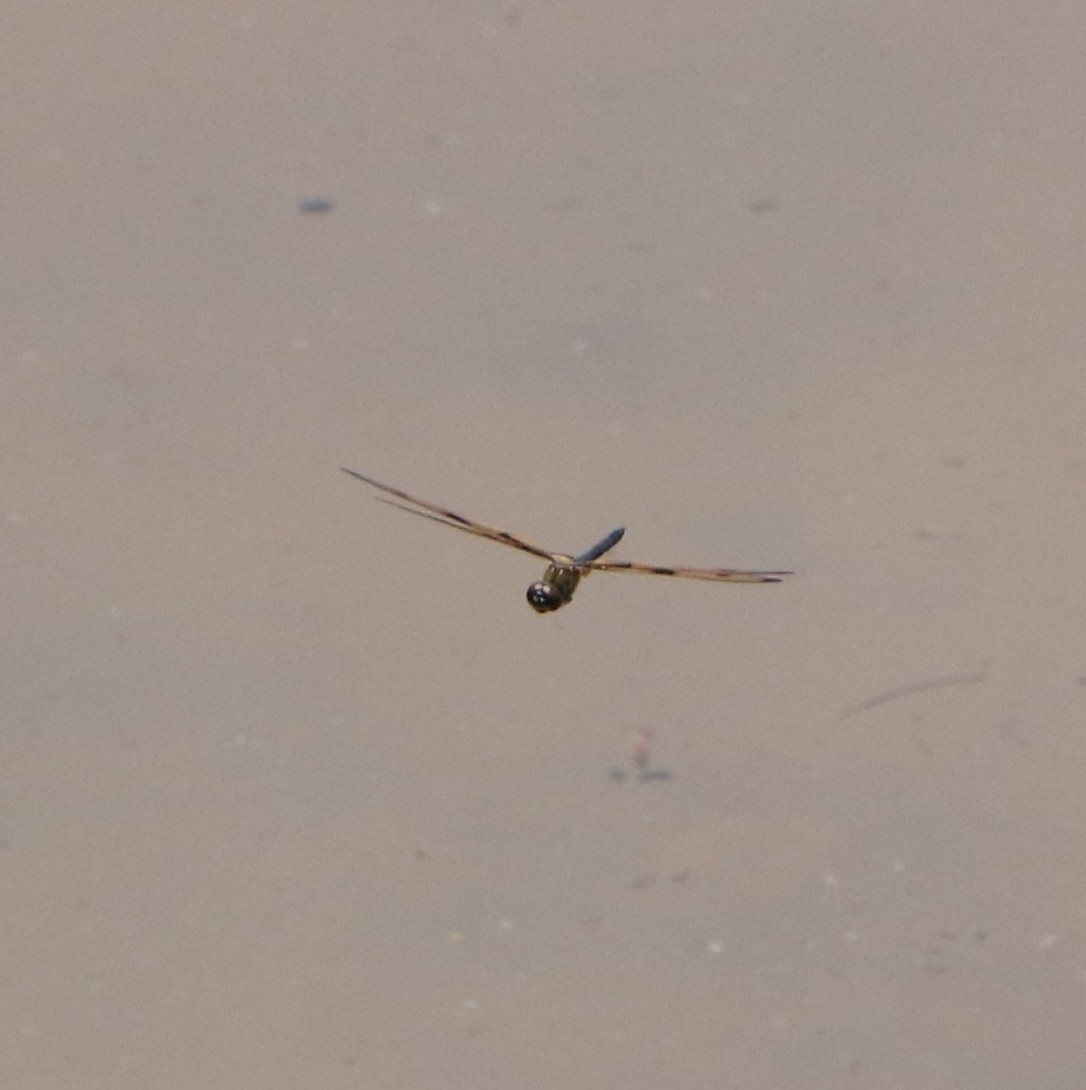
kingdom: Animalia
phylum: Arthropoda
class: Insecta
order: Odonata
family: Libellulidae
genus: Rhyothemis
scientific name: Rhyothemis variegata
